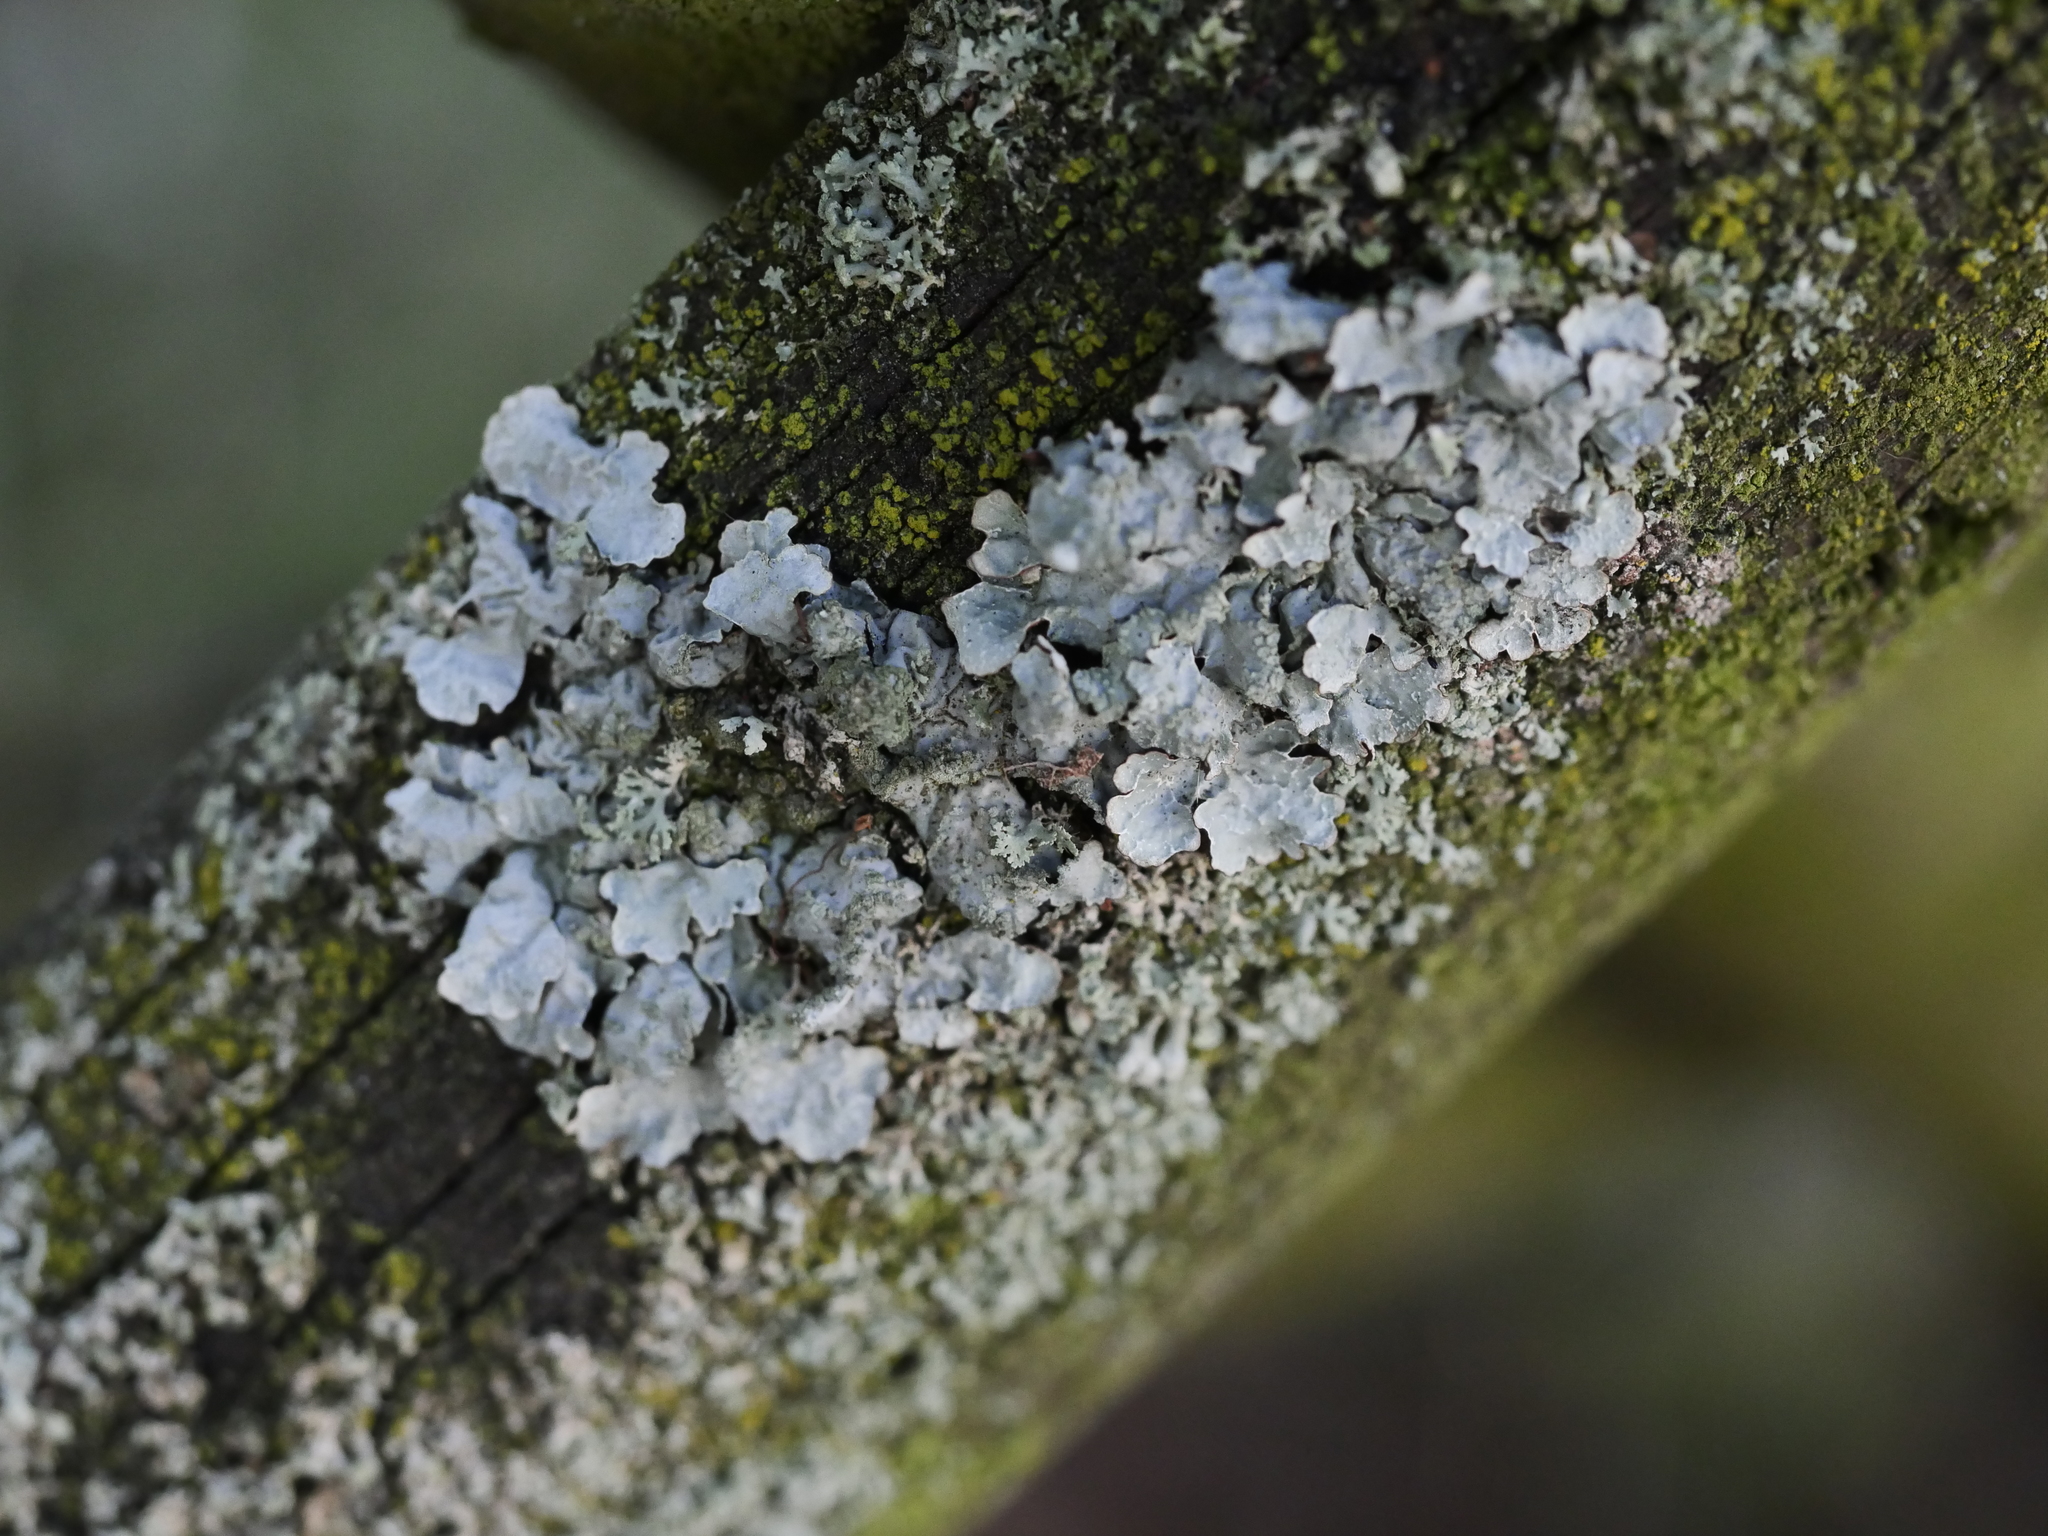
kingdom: Fungi
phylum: Ascomycota
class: Lecanoromycetes
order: Lecanorales
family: Parmeliaceae
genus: Parmelia
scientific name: Parmelia sulcata
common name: Netted shield lichen
